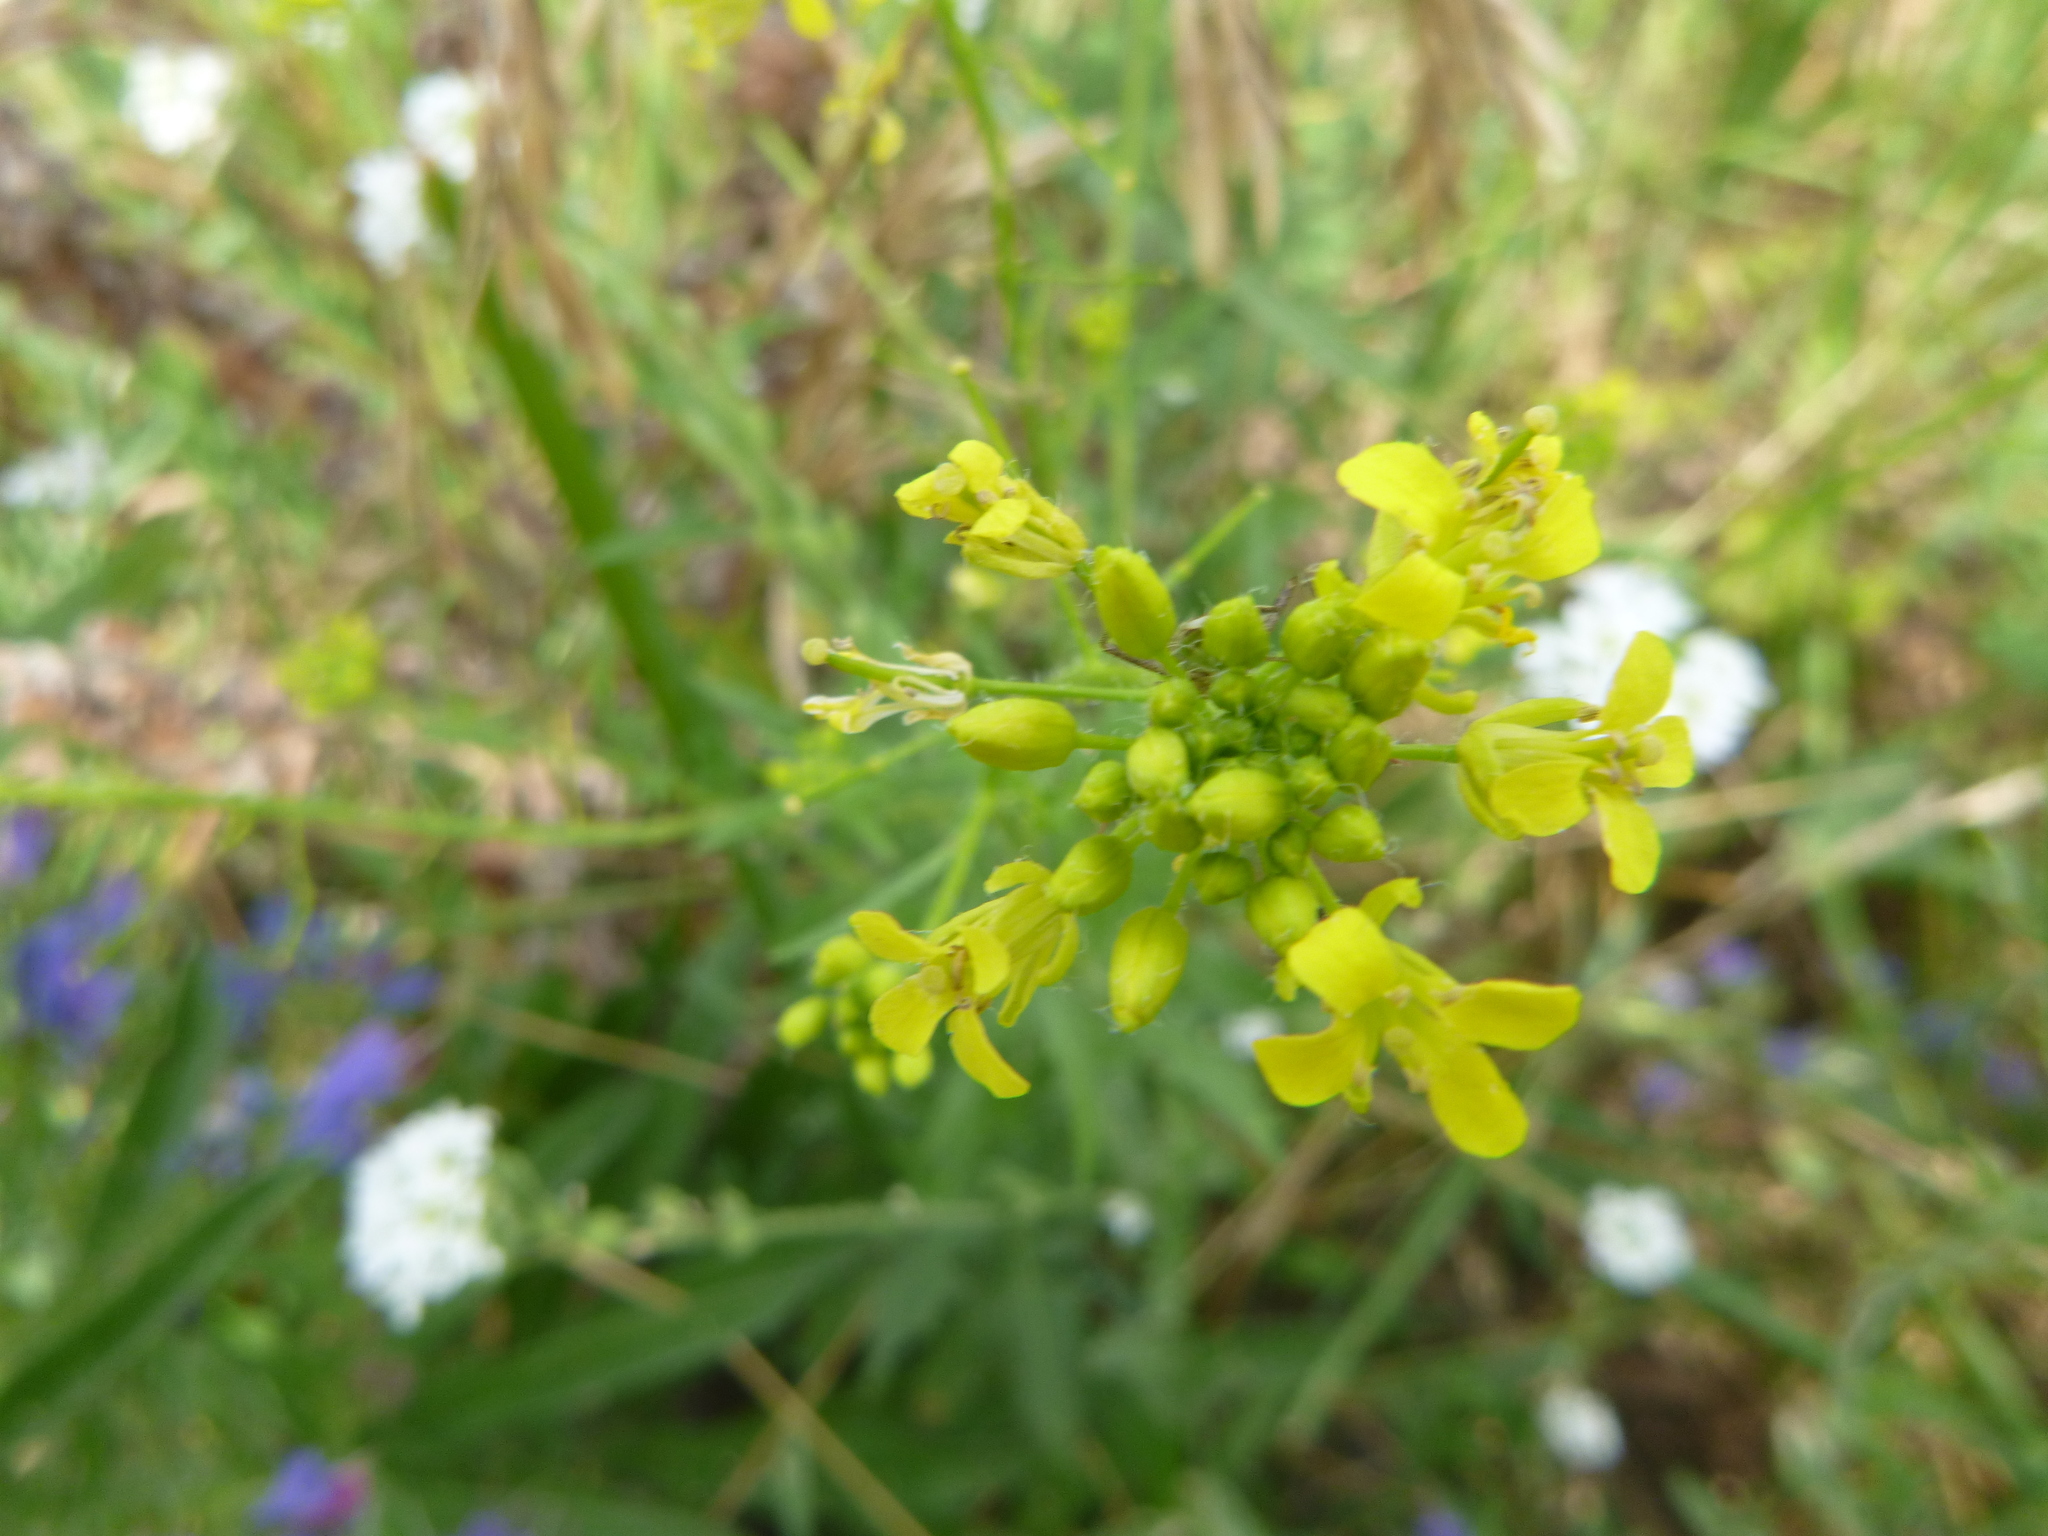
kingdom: Plantae
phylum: Tracheophyta
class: Magnoliopsida
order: Brassicales
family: Brassicaceae
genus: Brassica
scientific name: Brassica rapa
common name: Field mustard
